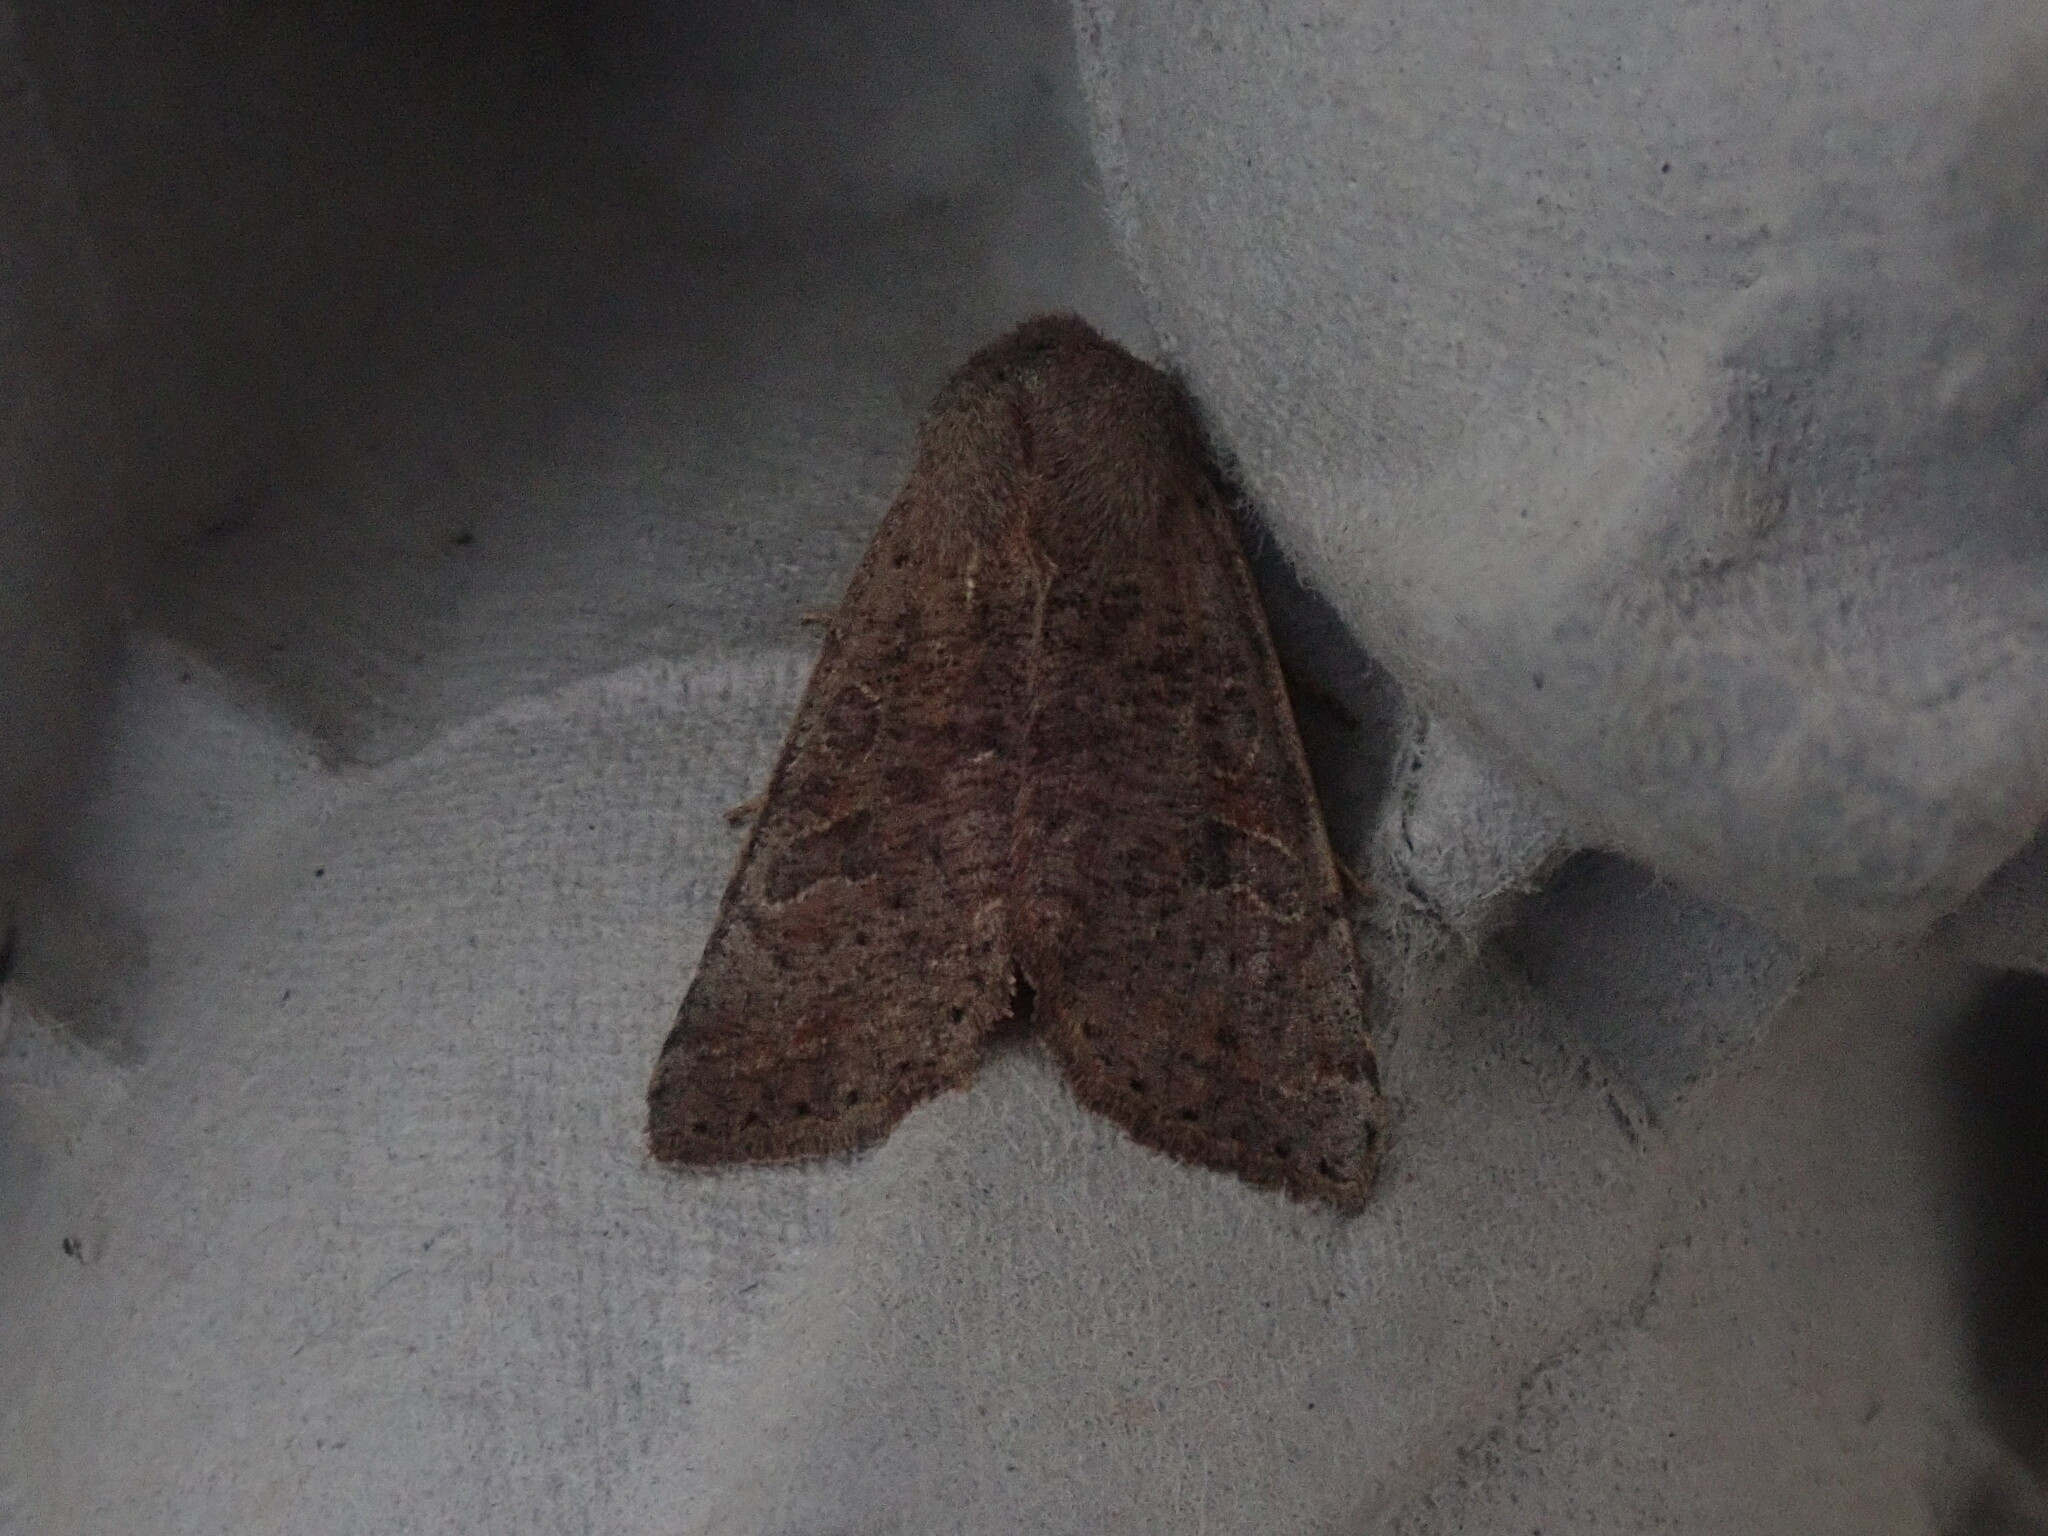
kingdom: Animalia
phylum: Arthropoda
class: Insecta
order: Lepidoptera
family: Noctuidae
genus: Orthosia
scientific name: Orthosia hibisci
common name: Green fruitworm
